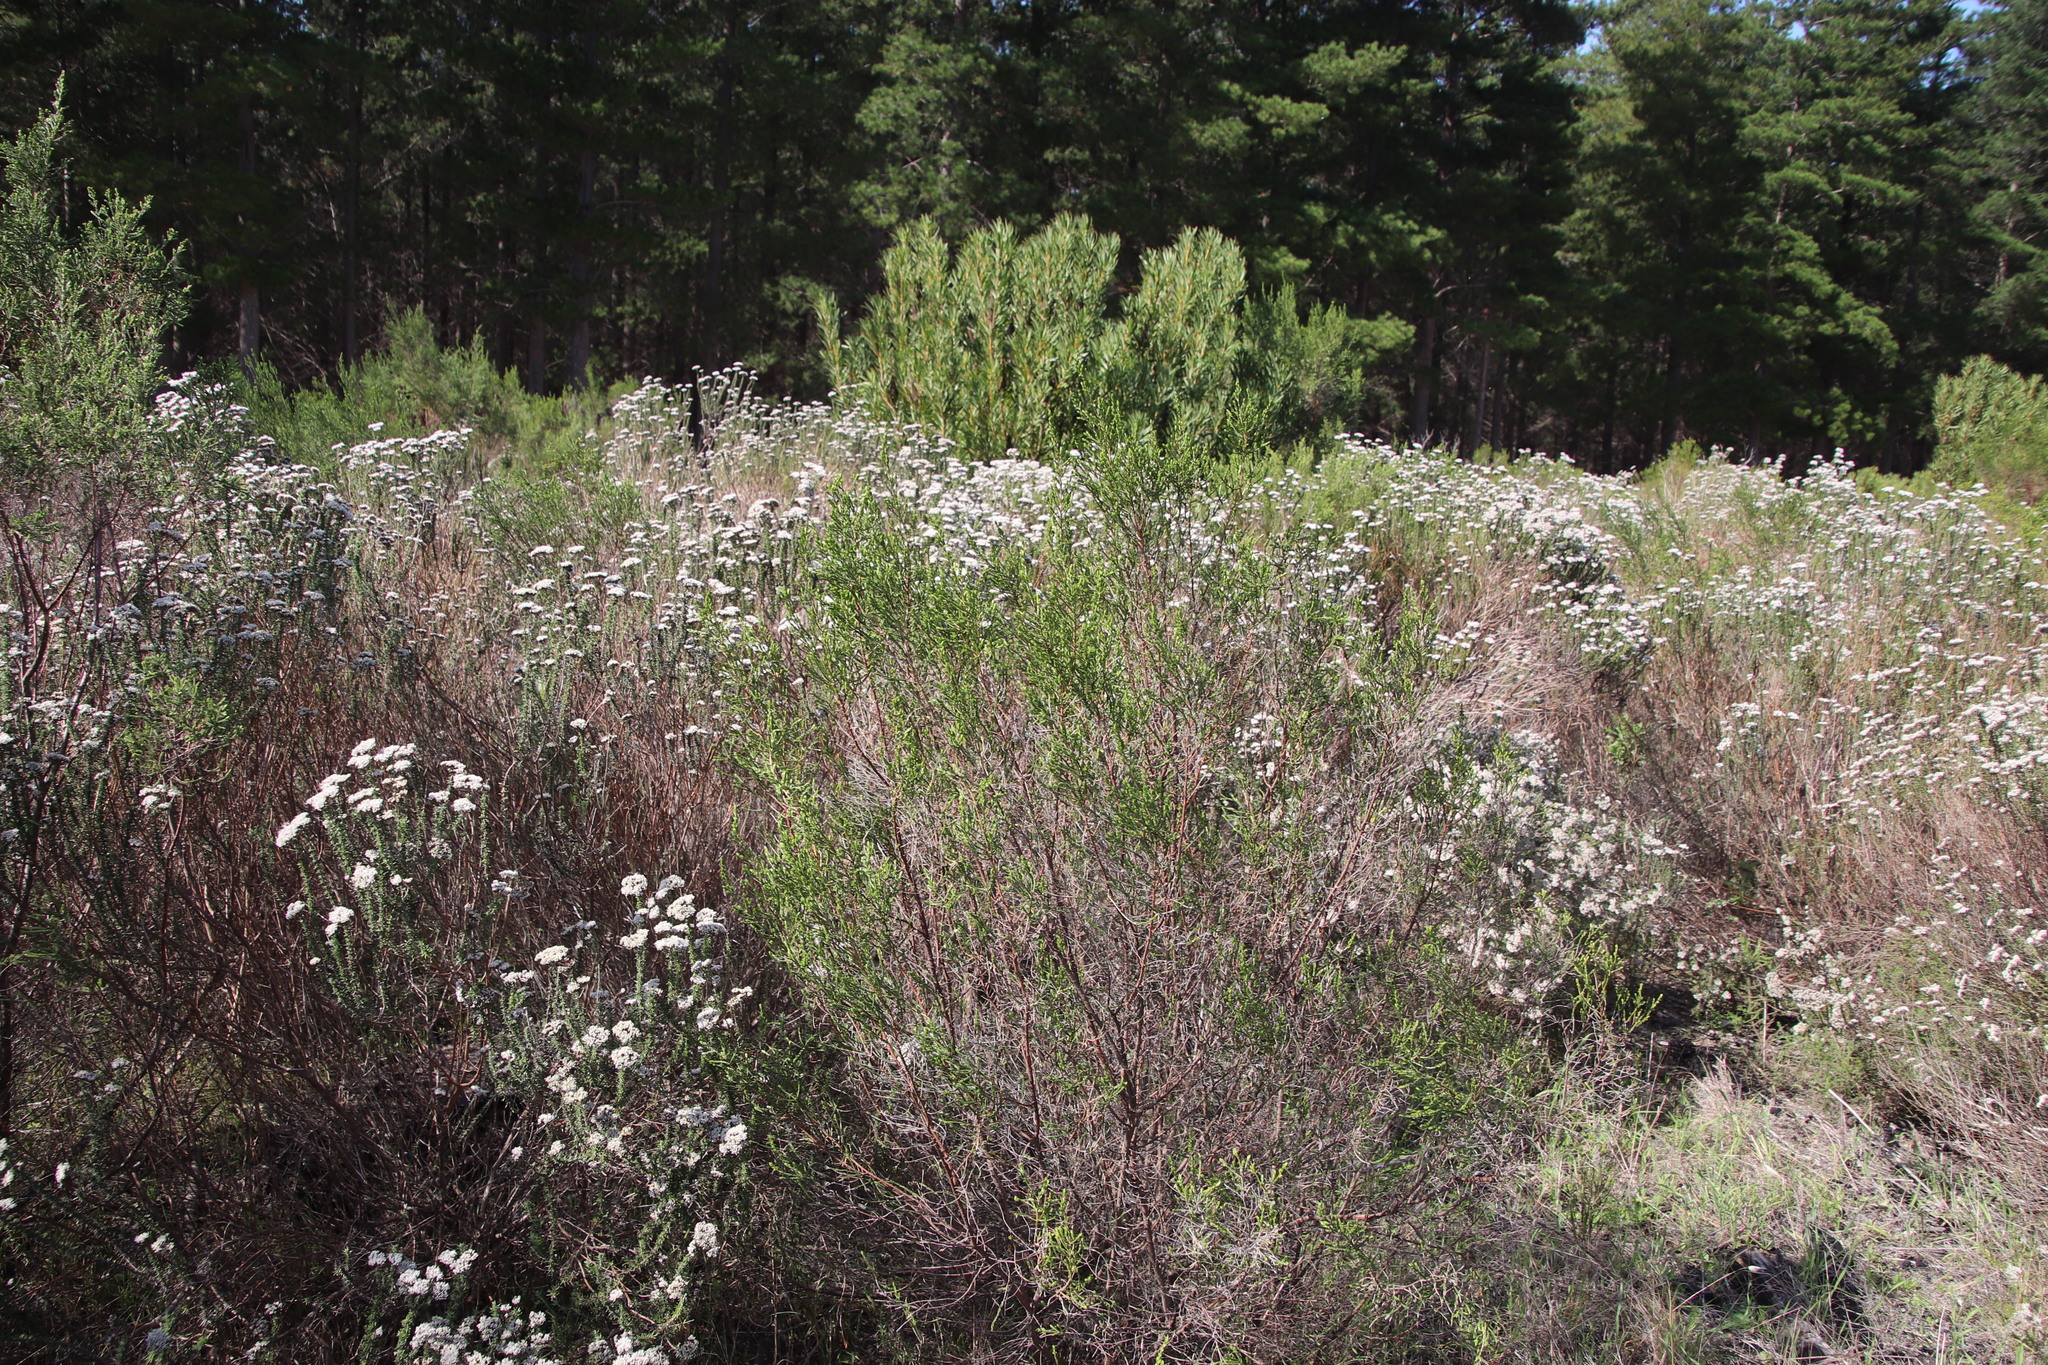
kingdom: Plantae
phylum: Tracheophyta
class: Magnoliopsida
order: Malvales
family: Thymelaeaceae
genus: Passerina
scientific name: Passerina corymbosa
